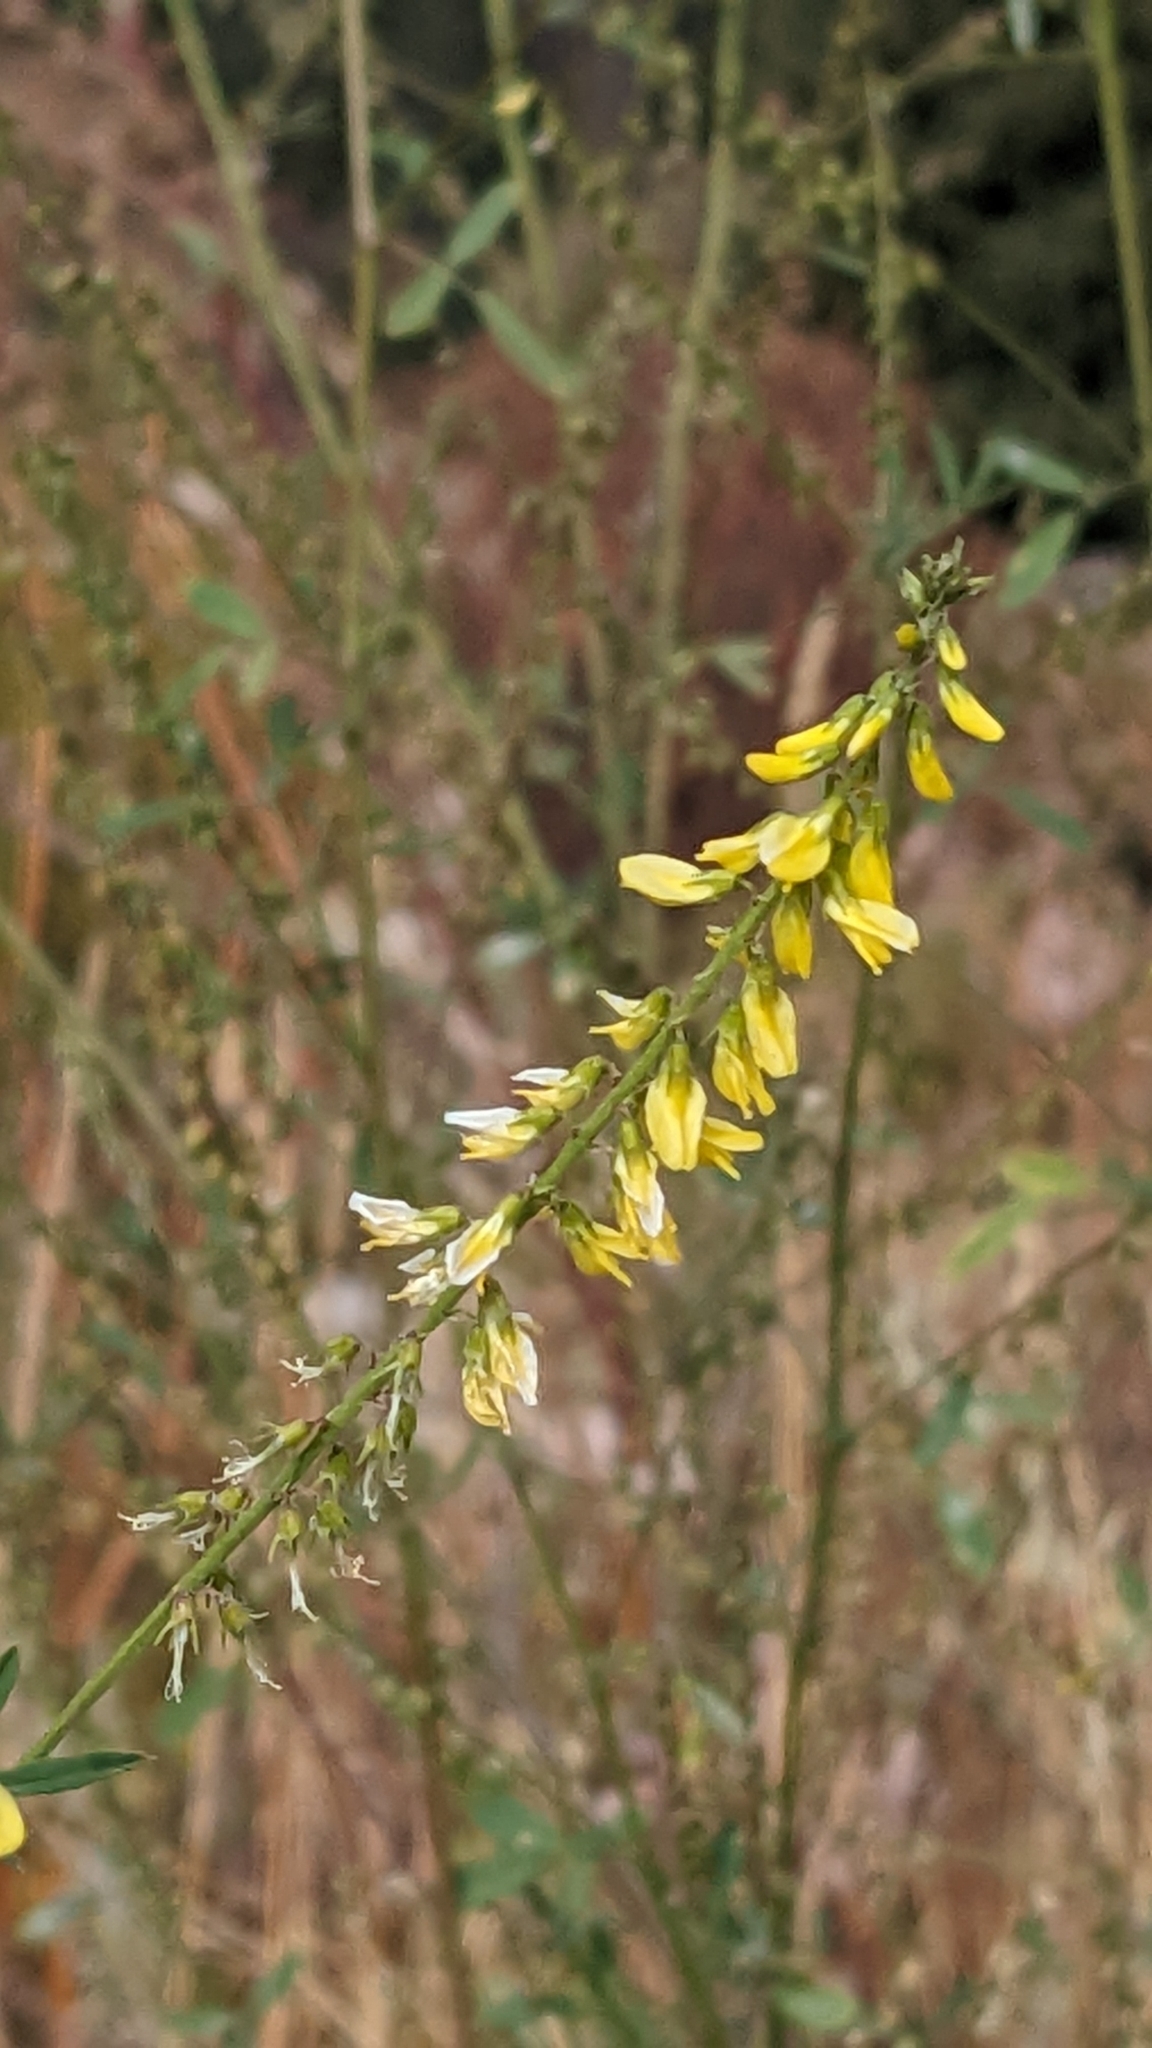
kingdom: Plantae
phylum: Tracheophyta
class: Magnoliopsida
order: Fabales
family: Fabaceae
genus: Melilotus
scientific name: Melilotus officinalis
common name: Sweetclover
